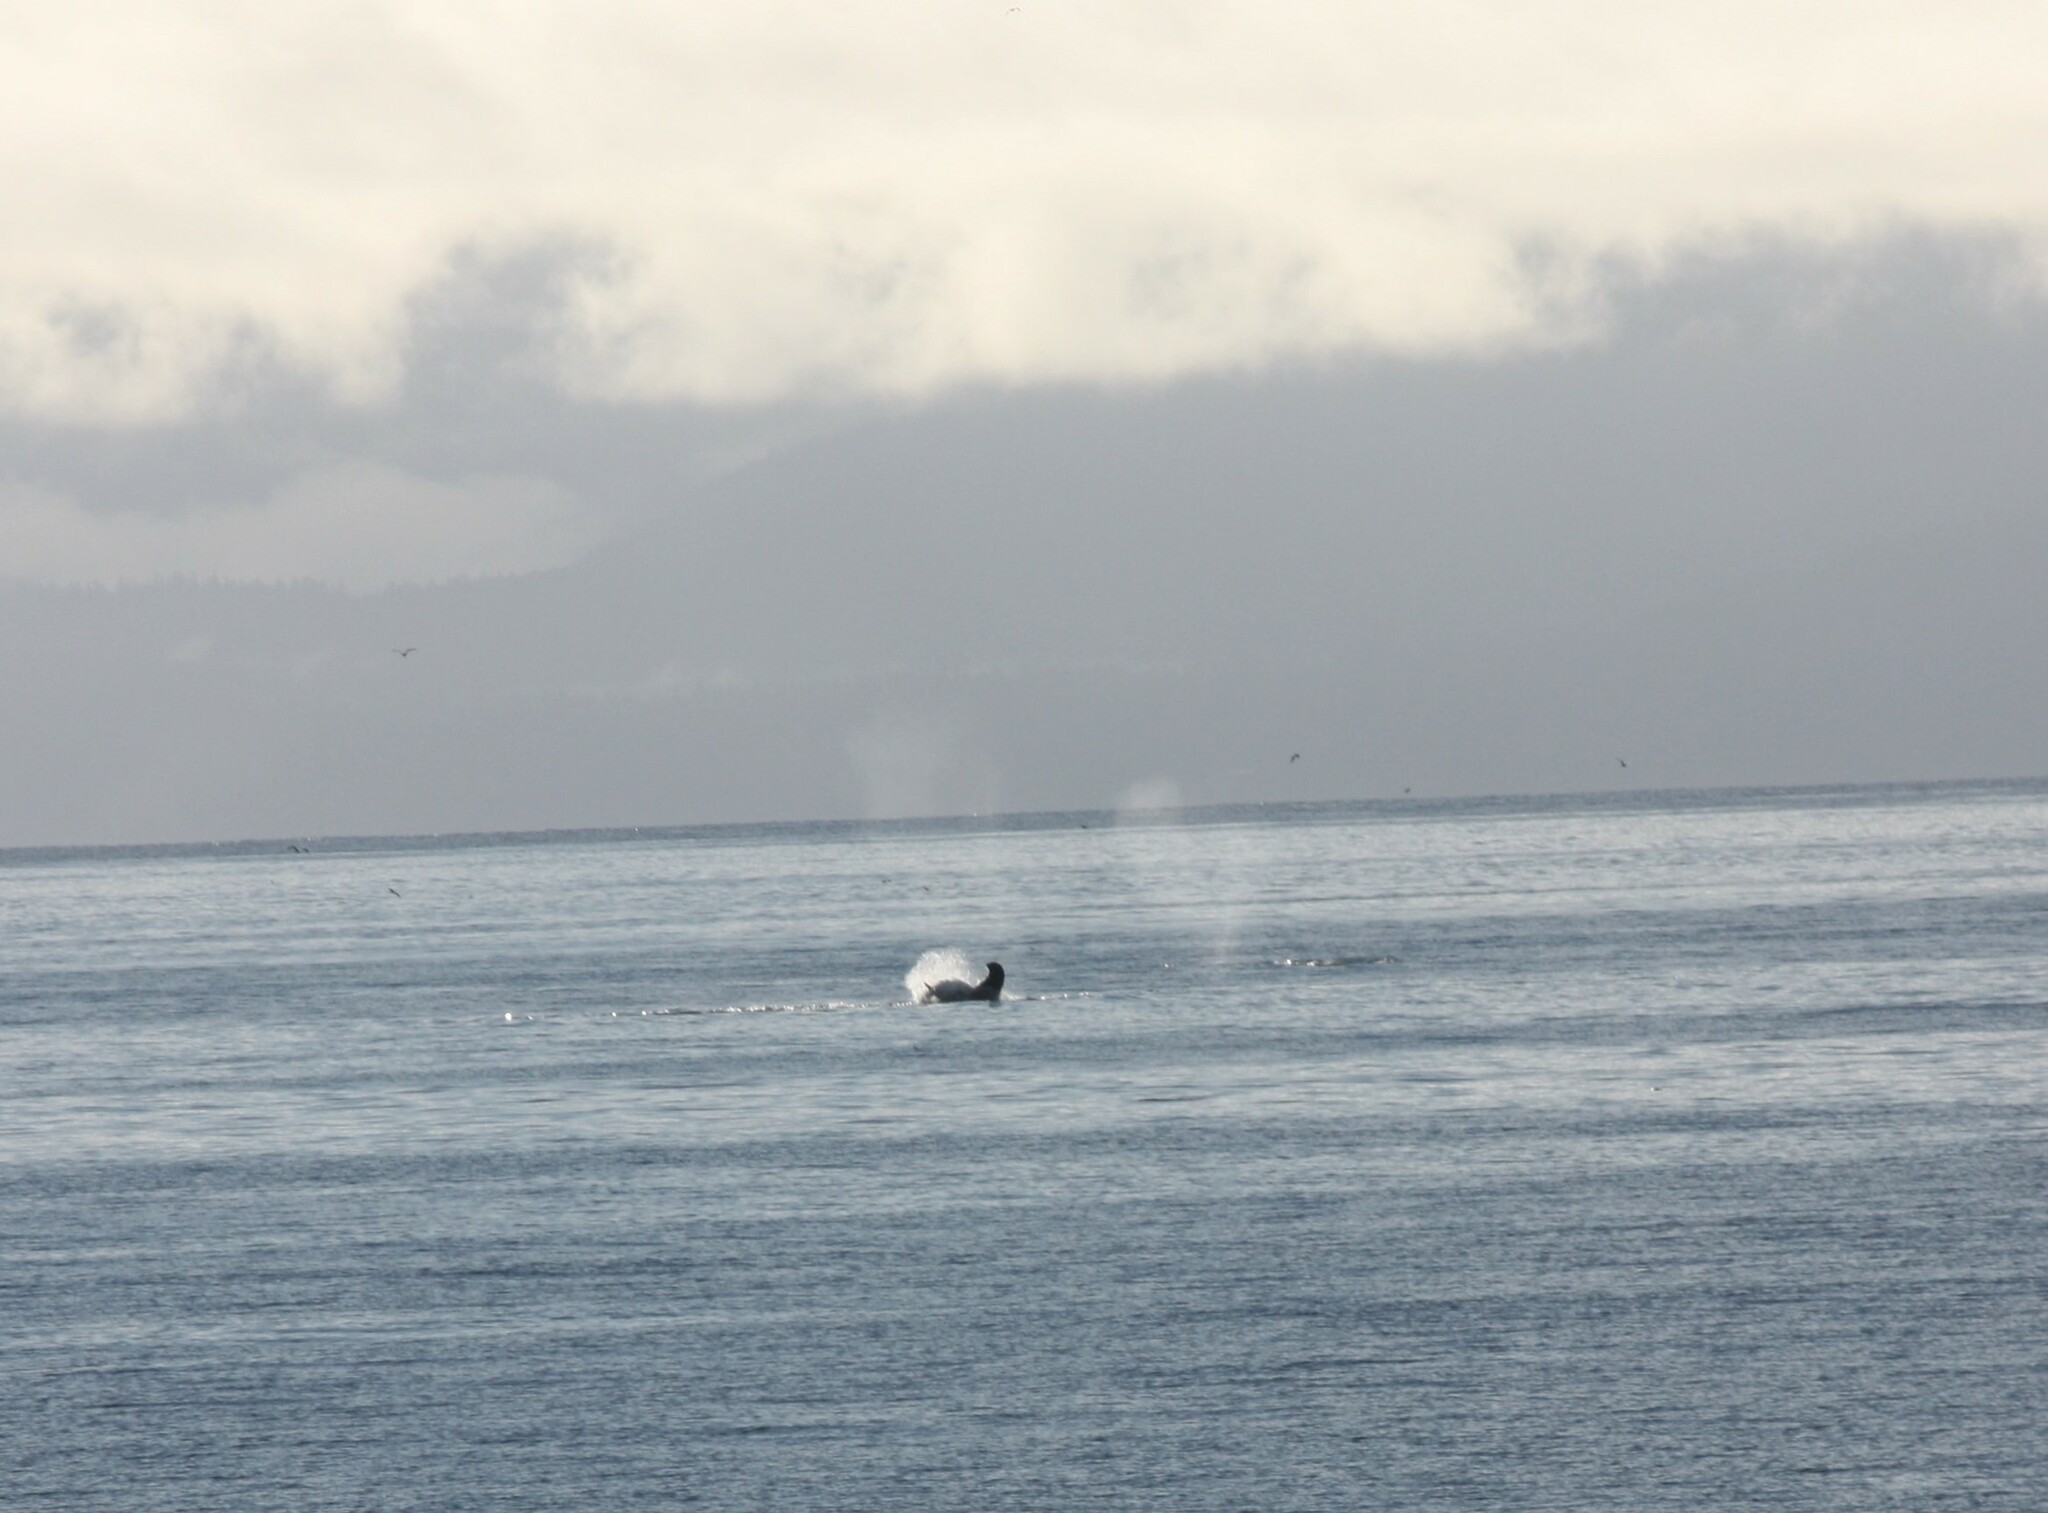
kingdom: Animalia
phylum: Chordata
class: Mammalia
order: Cetacea
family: Balaenopteridae
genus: Megaptera
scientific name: Megaptera novaeangliae
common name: Humpback whale
